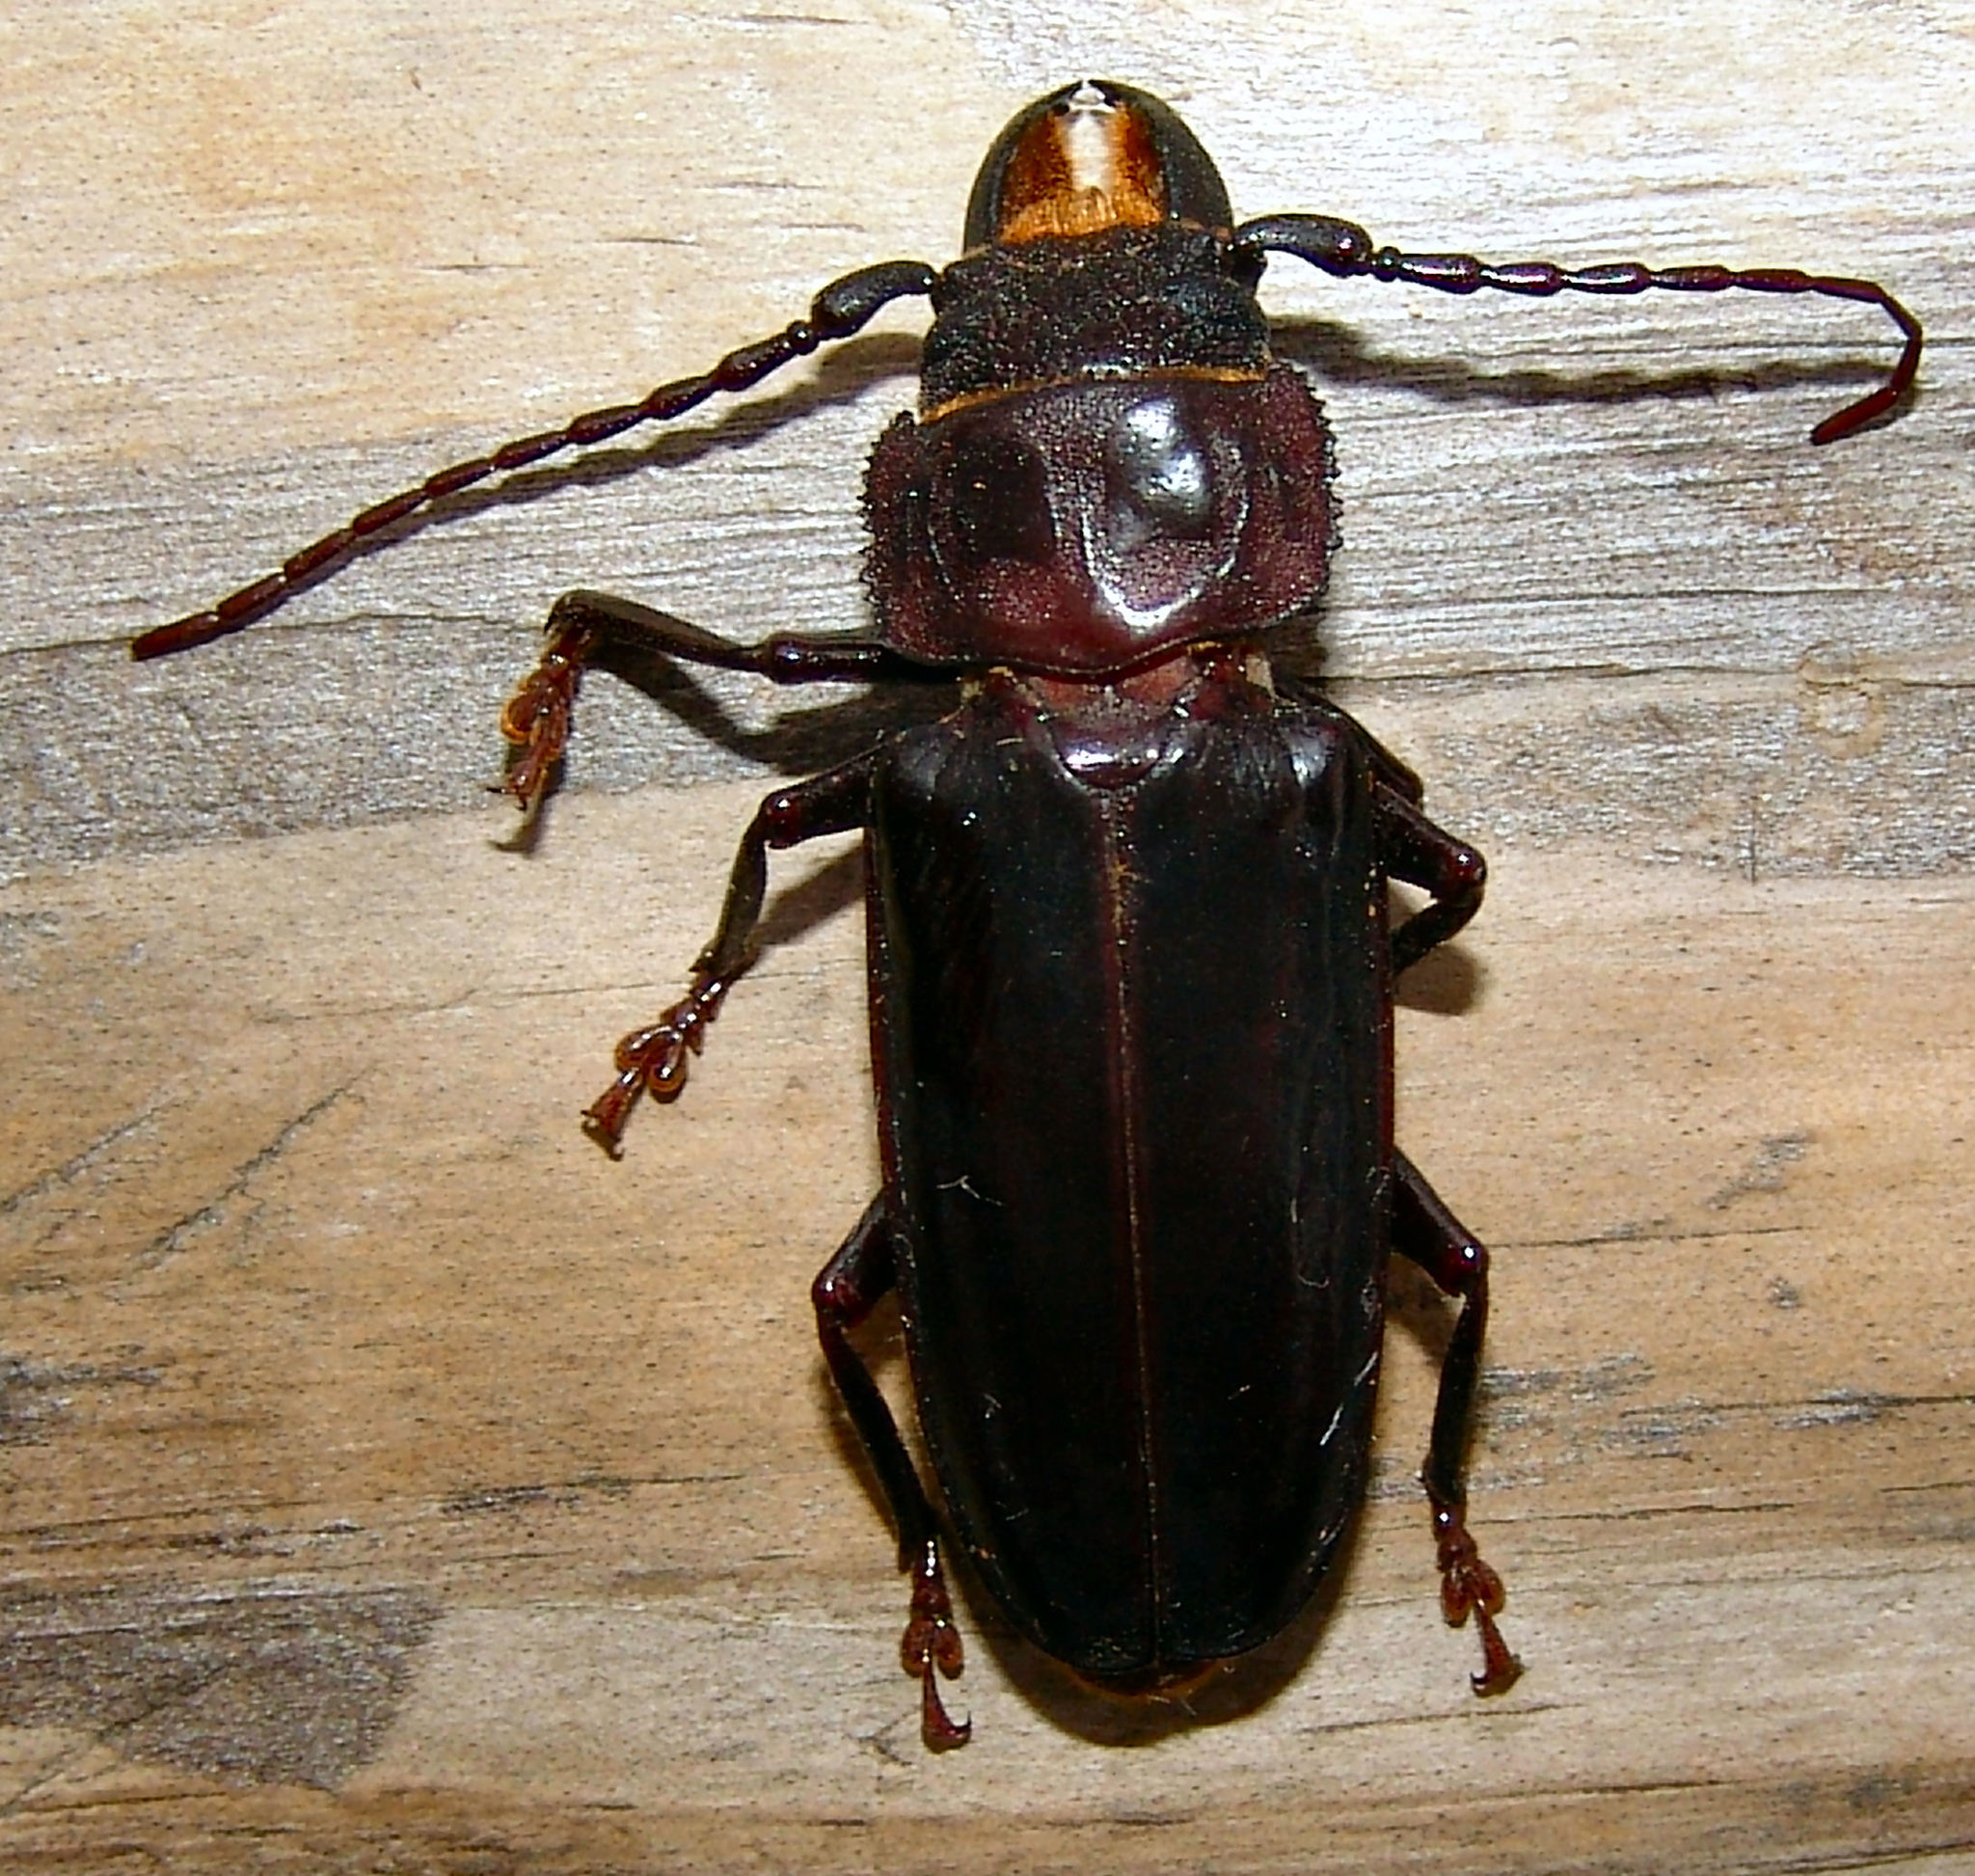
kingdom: Animalia
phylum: Arthropoda
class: Insecta
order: Coleoptera
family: Cerambycidae
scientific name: Cerambycidae
